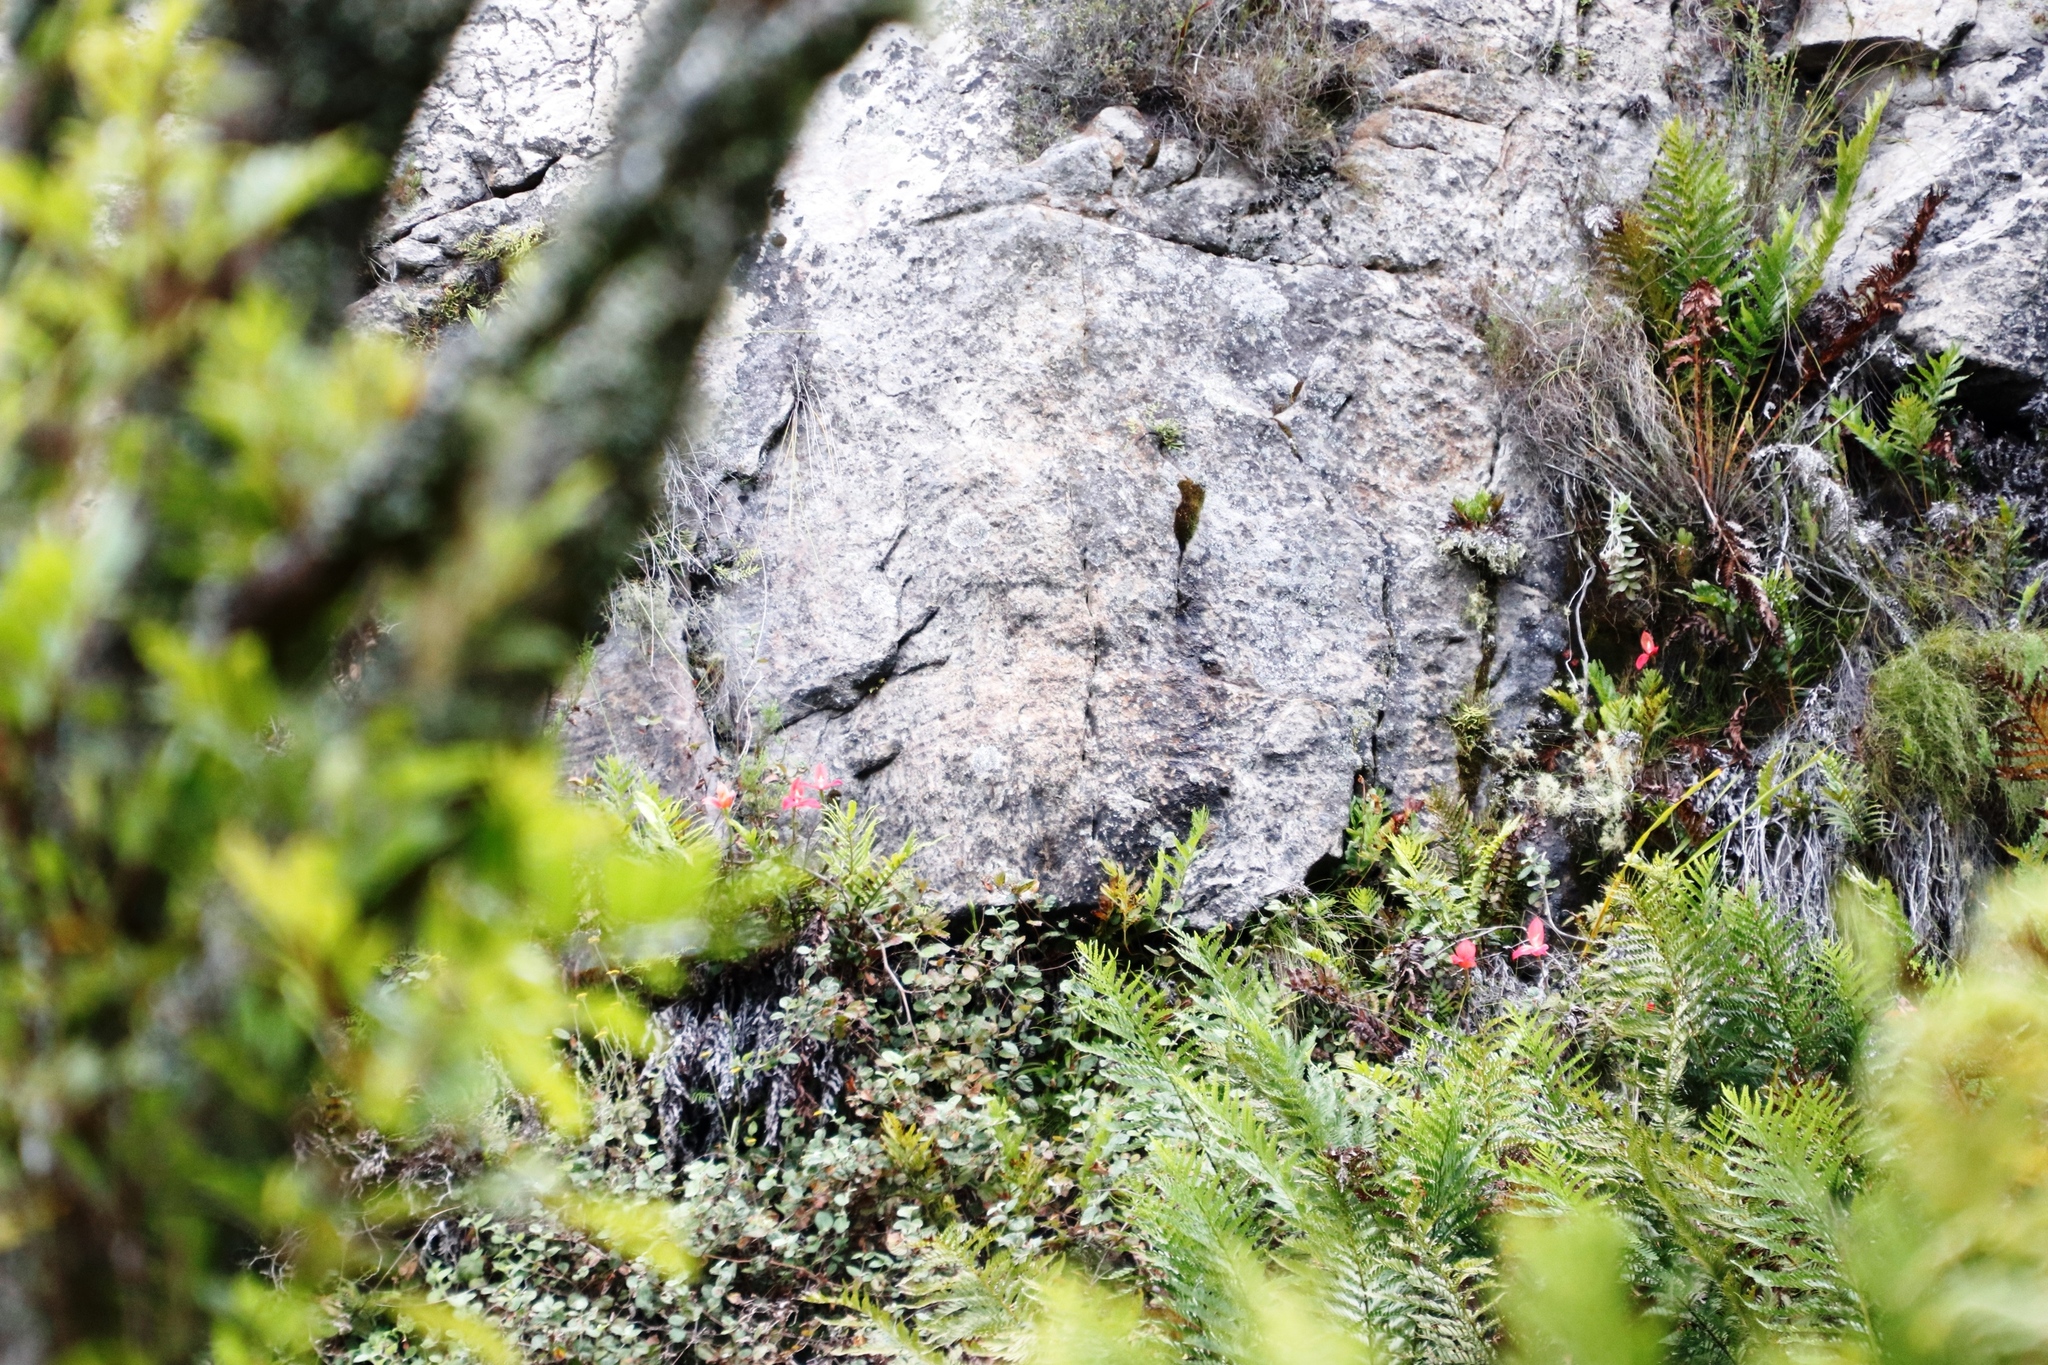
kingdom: Plantae
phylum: Tracheophyta
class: Liliopsida
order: Asparagales
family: Orchidaceae
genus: Disa
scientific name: Disa uniflora
